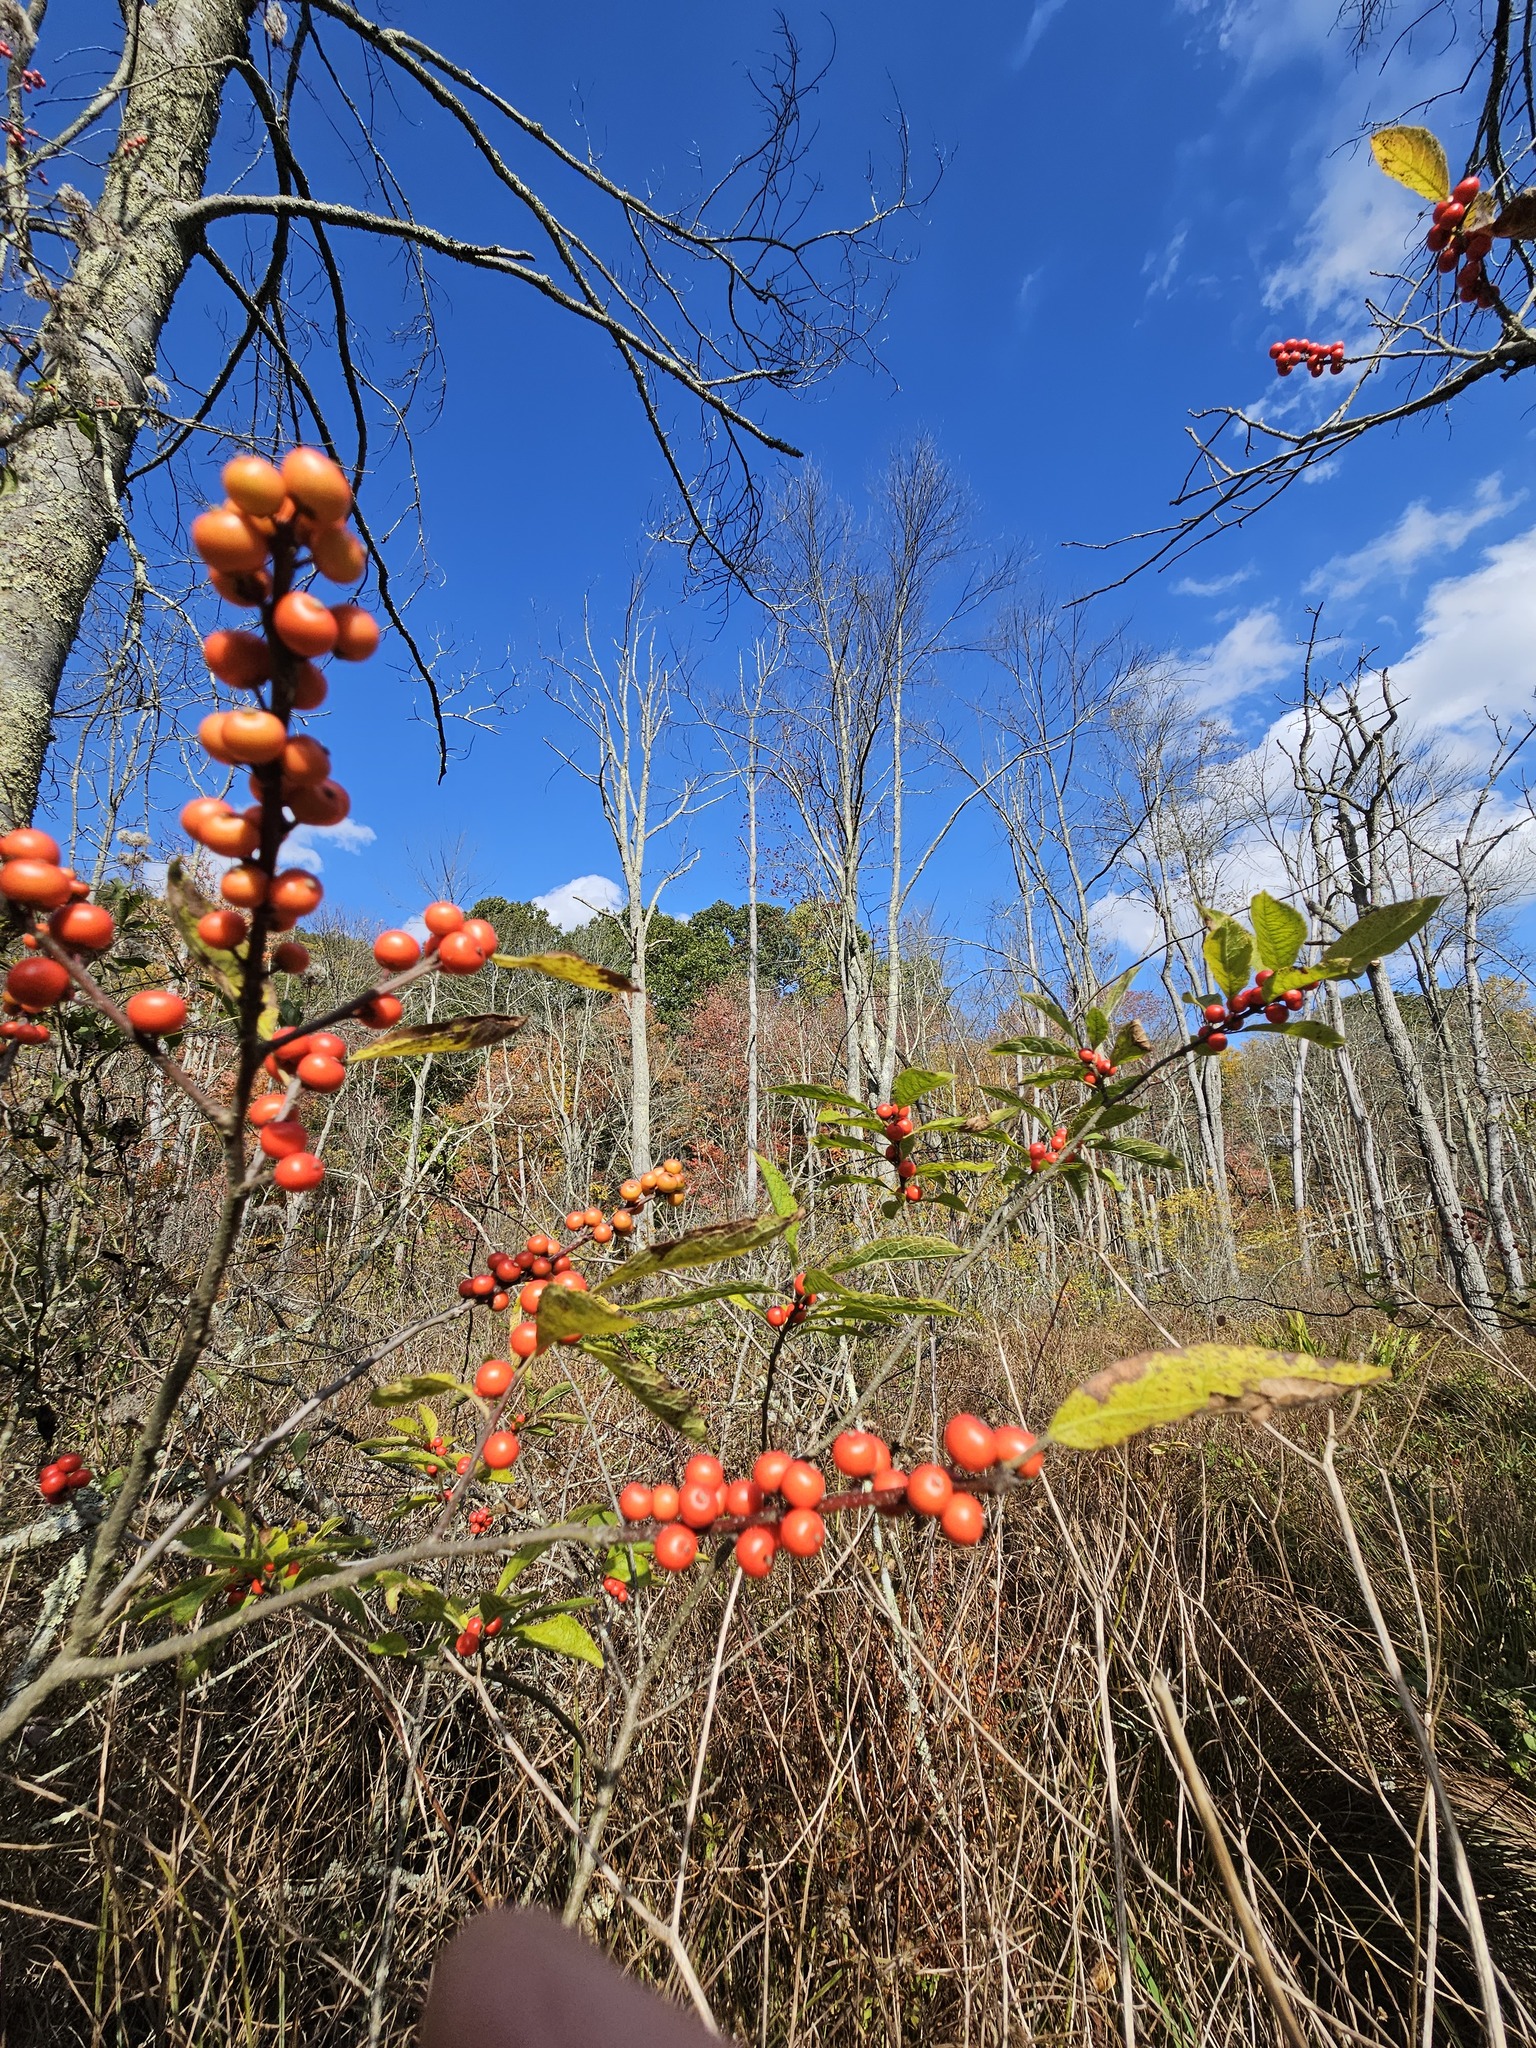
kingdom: Plantae
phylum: Tracheophyta
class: Magnoliopsida
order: Aquifoliales
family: Aquifoliaceae
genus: Ilex
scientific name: Ilex verticillata
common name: Virginia winterberry
